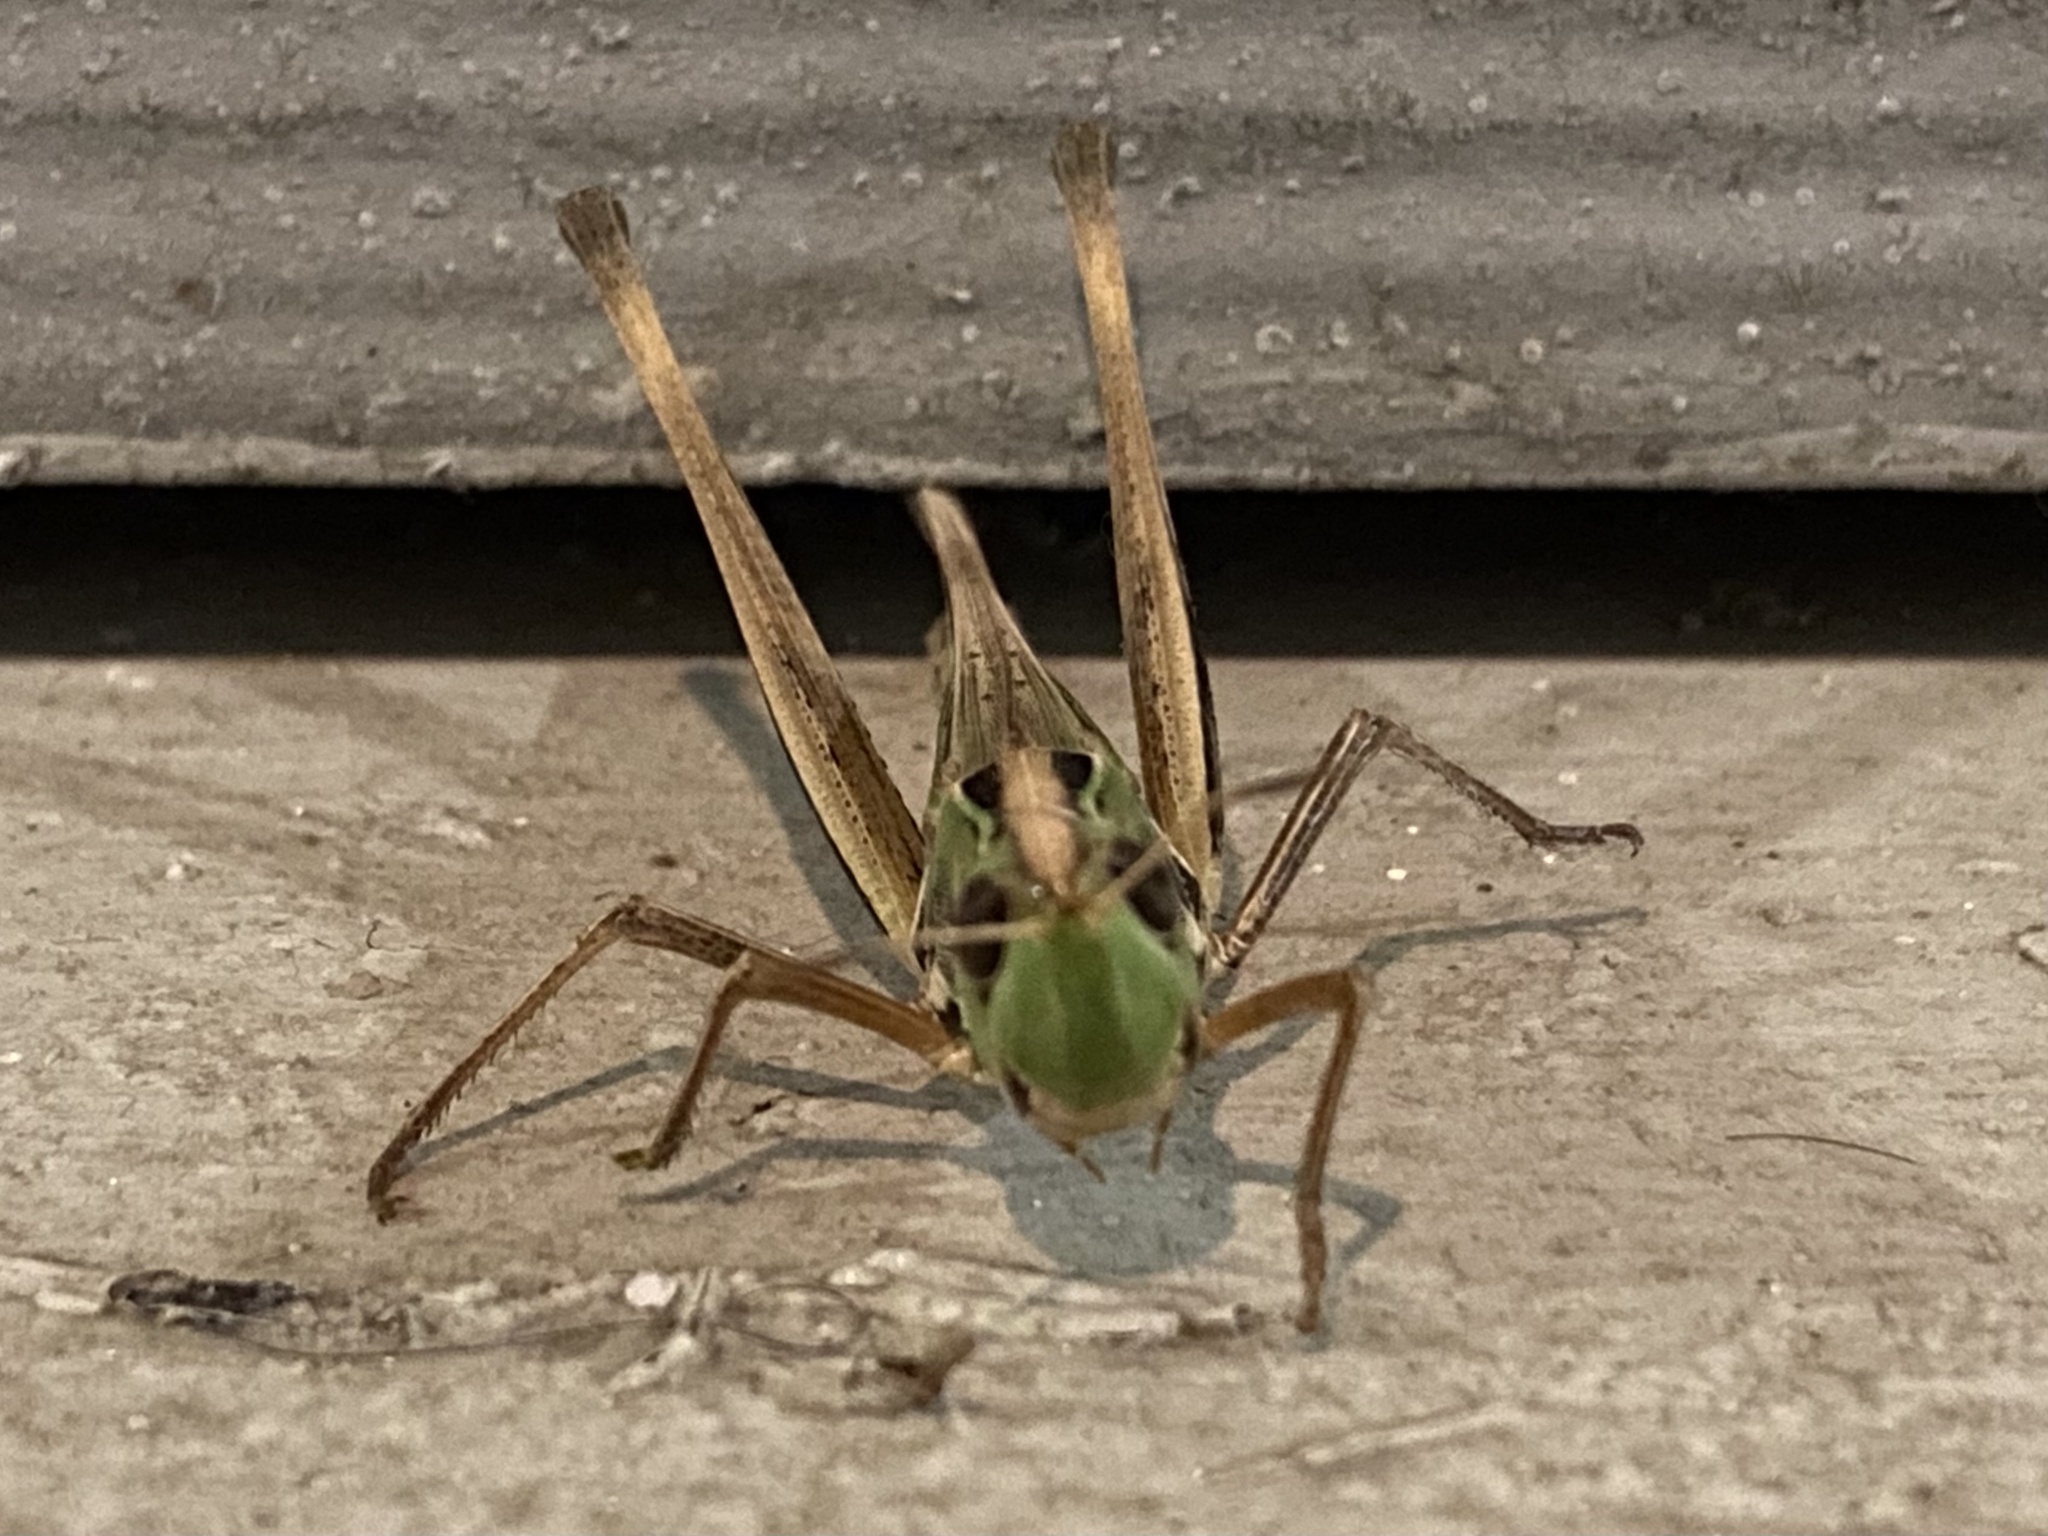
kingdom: Animalia
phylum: Arthropoda
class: Insecta
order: Orthoptera
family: Acrididae
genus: Syrbula
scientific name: Syrbula admirabilis
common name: Handsome grasshopper
